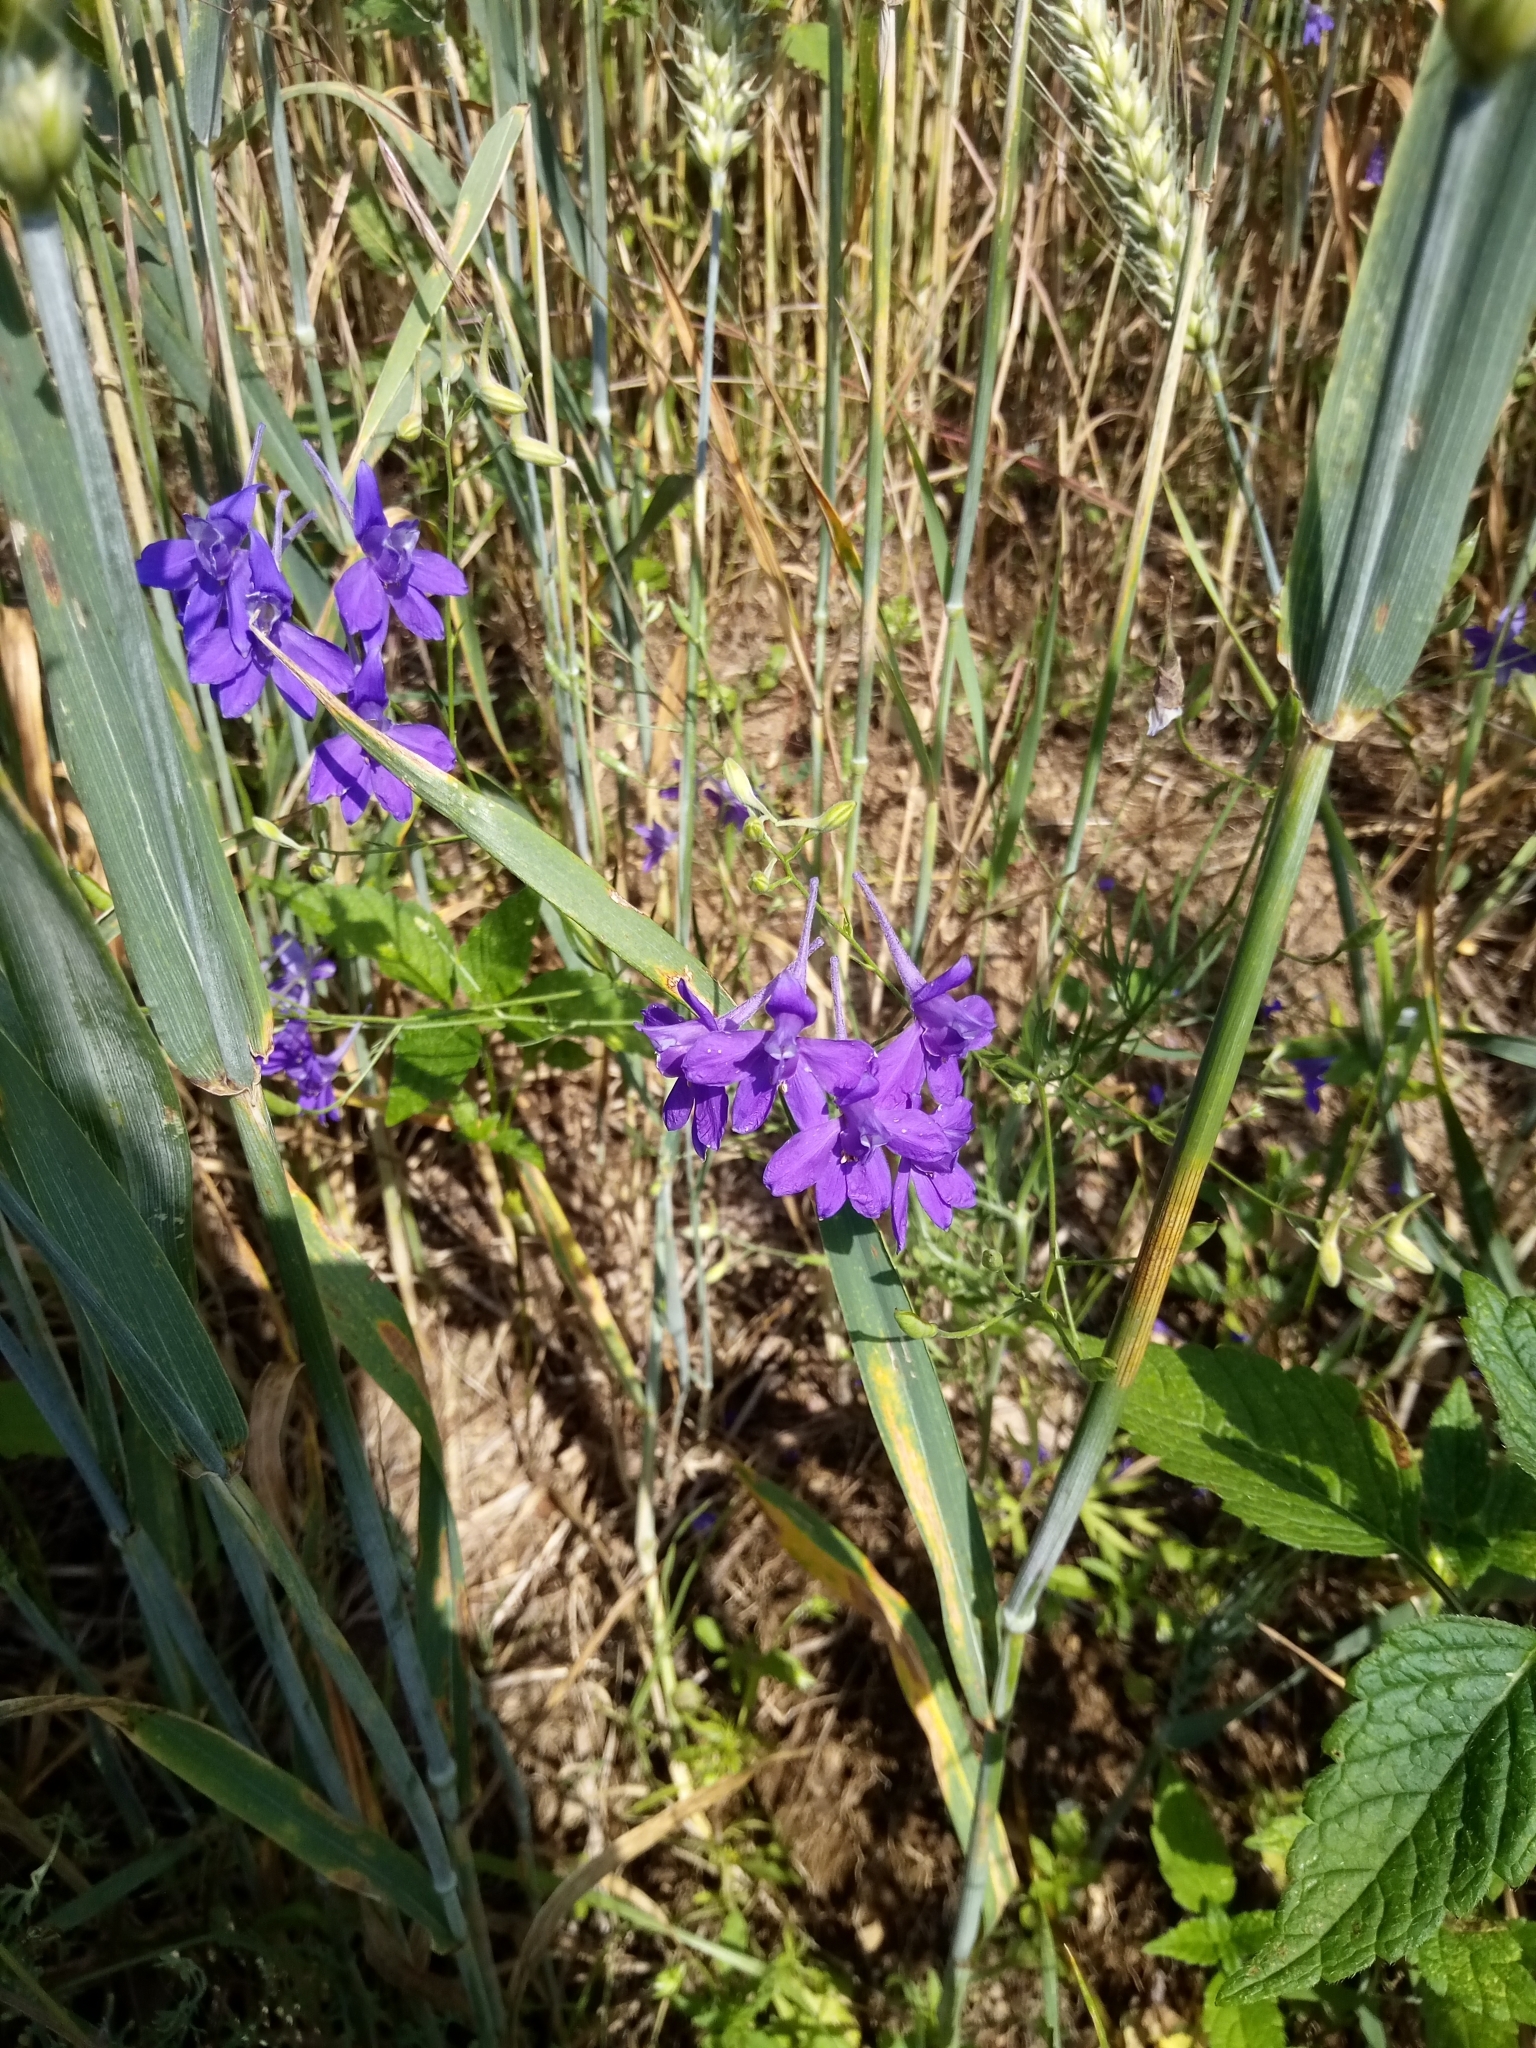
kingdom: Plantae
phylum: Tracheophyta
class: Magnoliopsida
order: Ranunculales
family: Ranunculaceae
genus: Delphinium
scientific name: Delphinium consolida
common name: Branching larkspur
